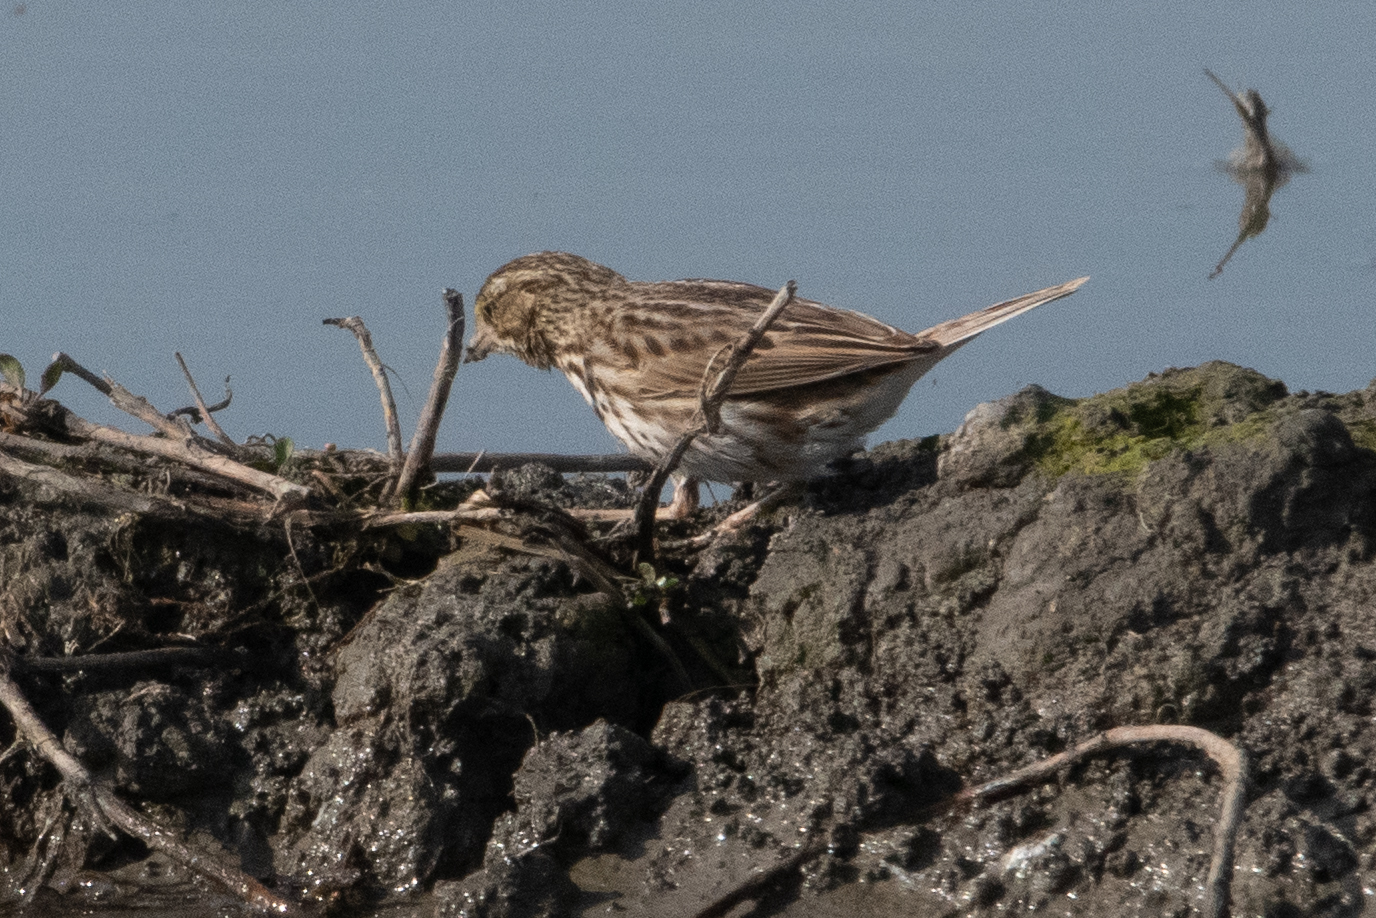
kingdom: Animalia
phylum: Chordata
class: Aves
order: Passeriformes
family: Passerellidae
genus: Passerculus
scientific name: Passerculus sandwichensis
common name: Savannah sparrow
